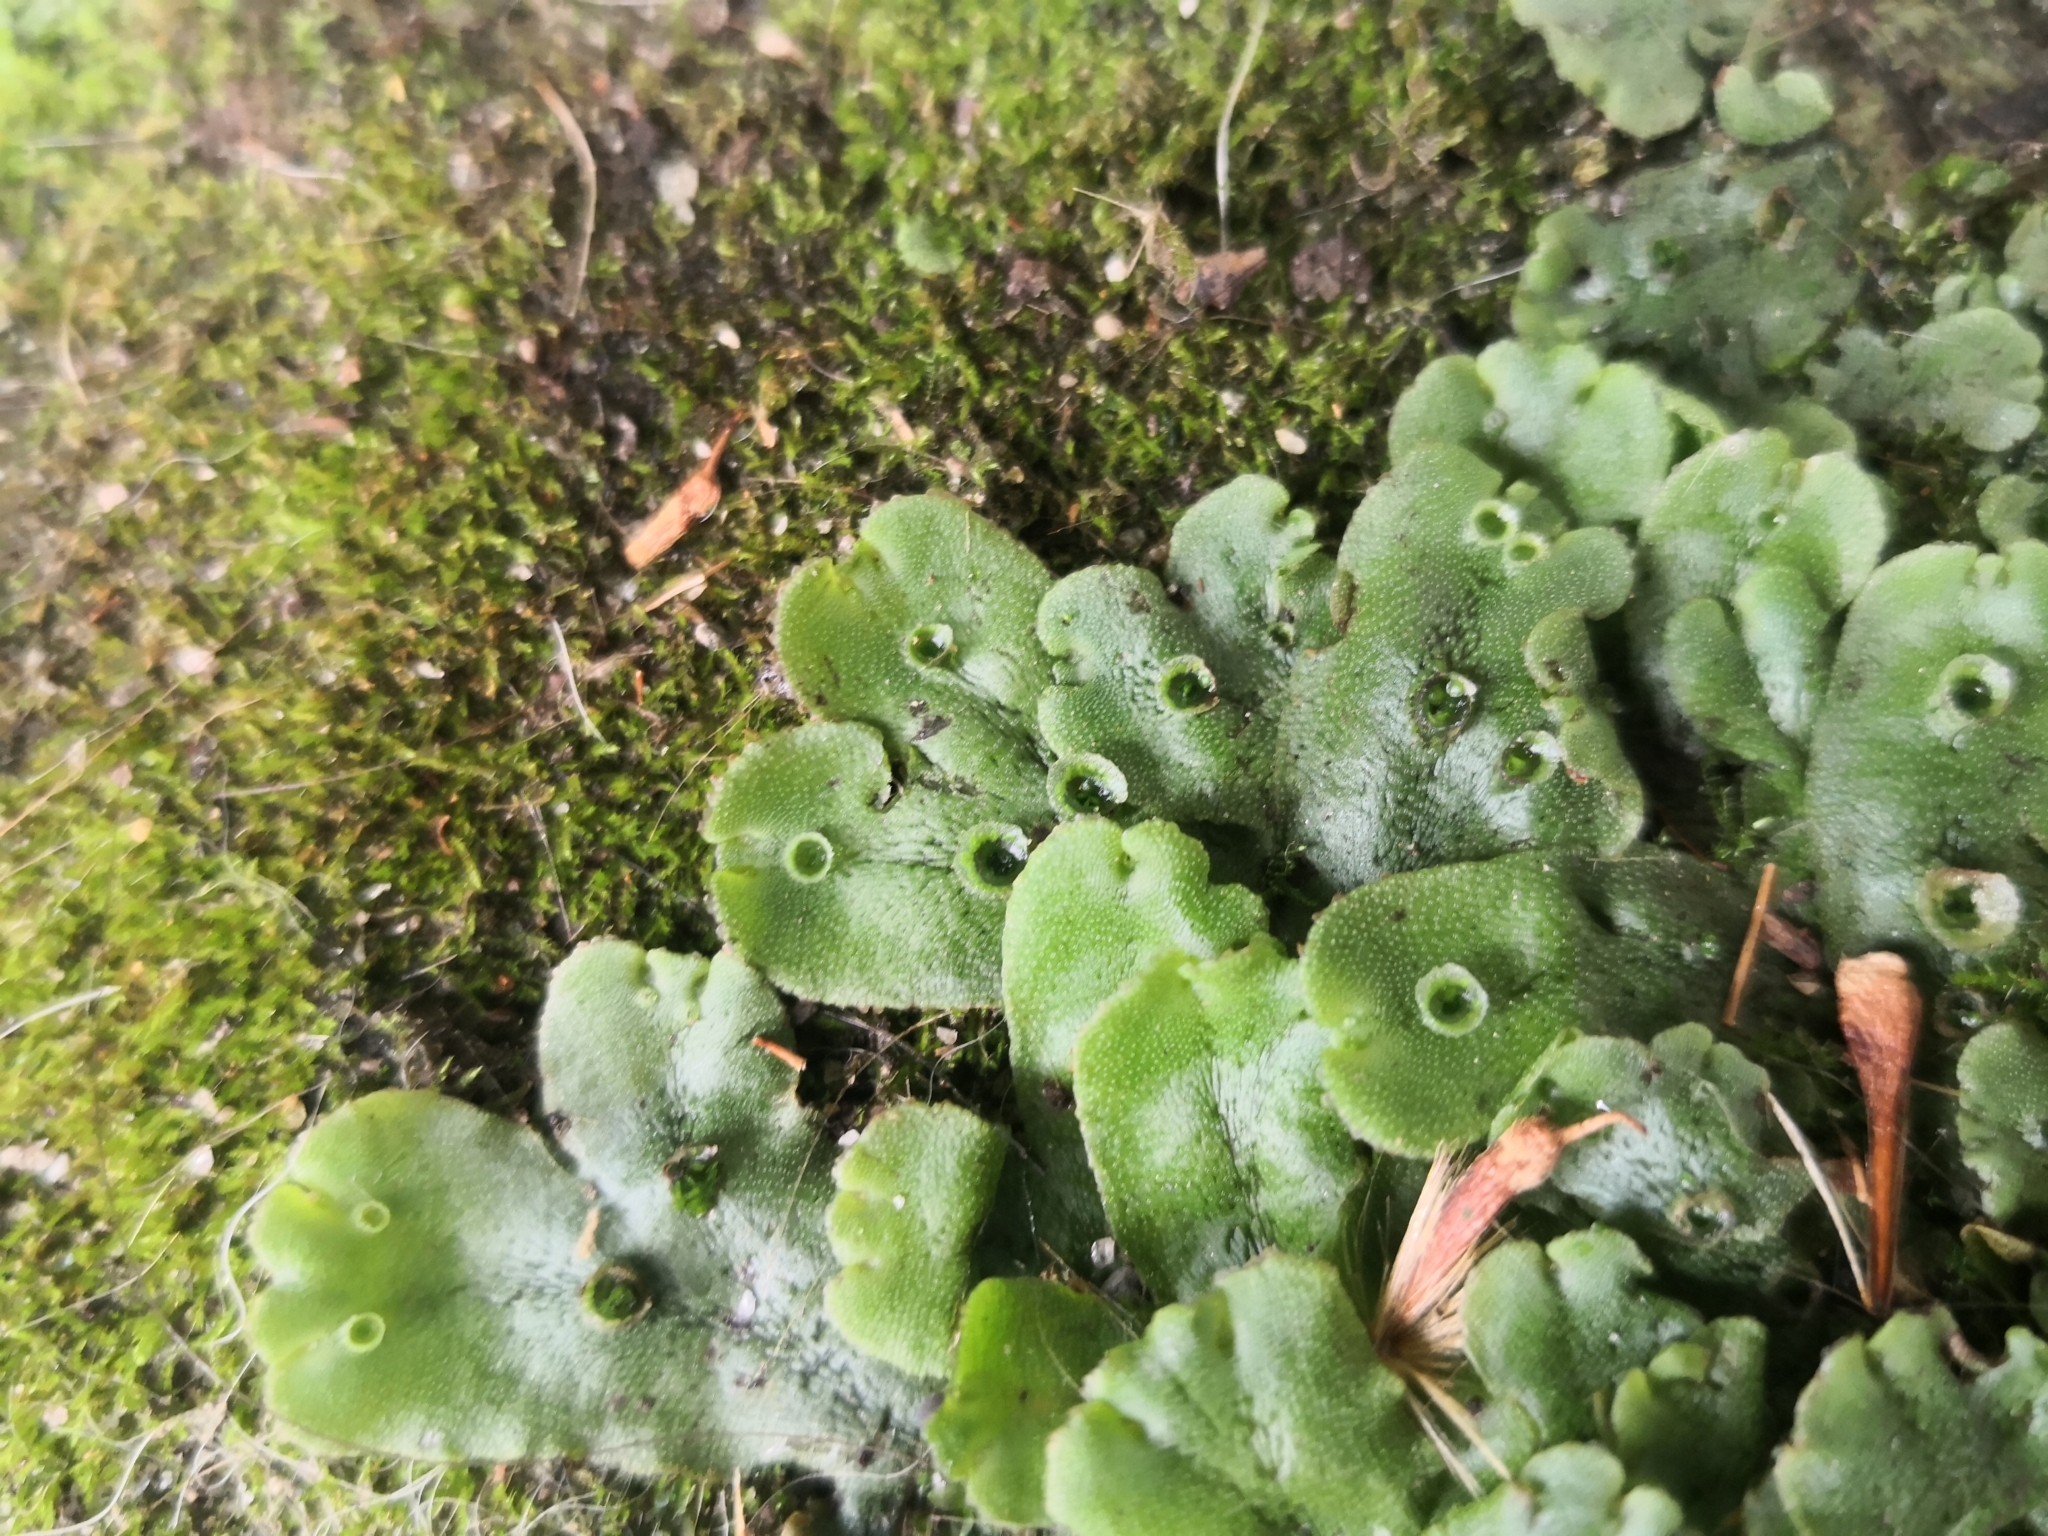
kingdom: Plantae
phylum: Marchantiophyta
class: Marchantiopsida
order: Marchantiales
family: Marchantiaceae
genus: Marchantia
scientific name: Marchantia polymorpha
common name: Common liverwort
